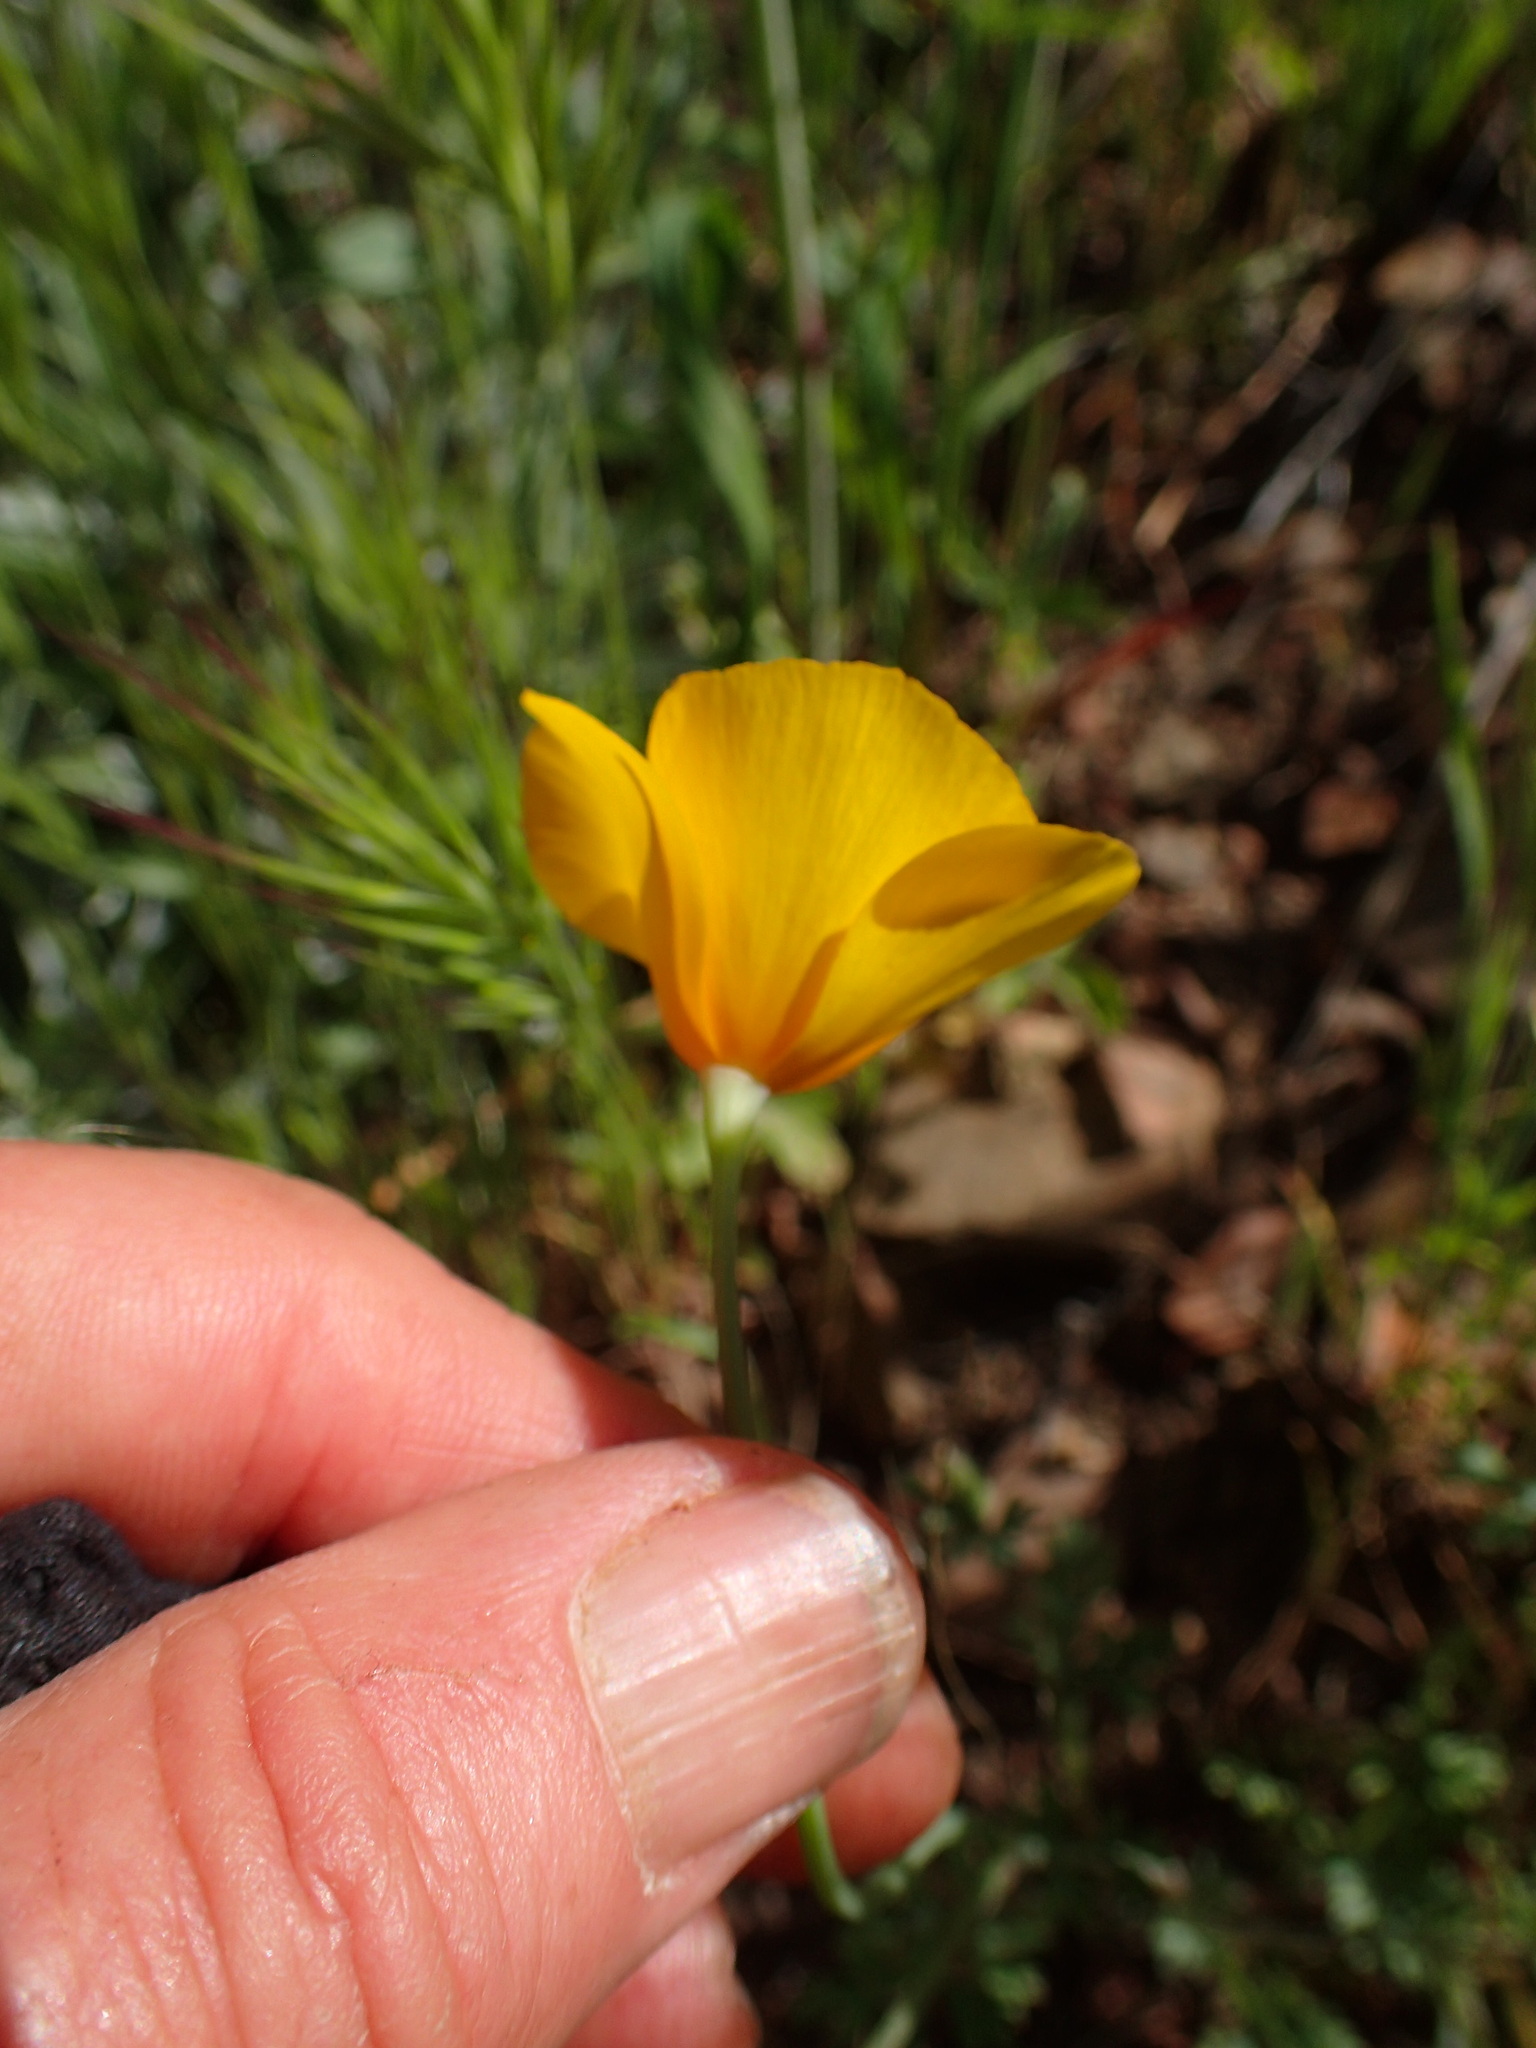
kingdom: Plantae
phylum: Tracheophyta
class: Magnoliopsida
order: Ranunculales
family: Papaveraceae
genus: Eschscholzia
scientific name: Eschscholzia caespitosa
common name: Tufted california-poppy
